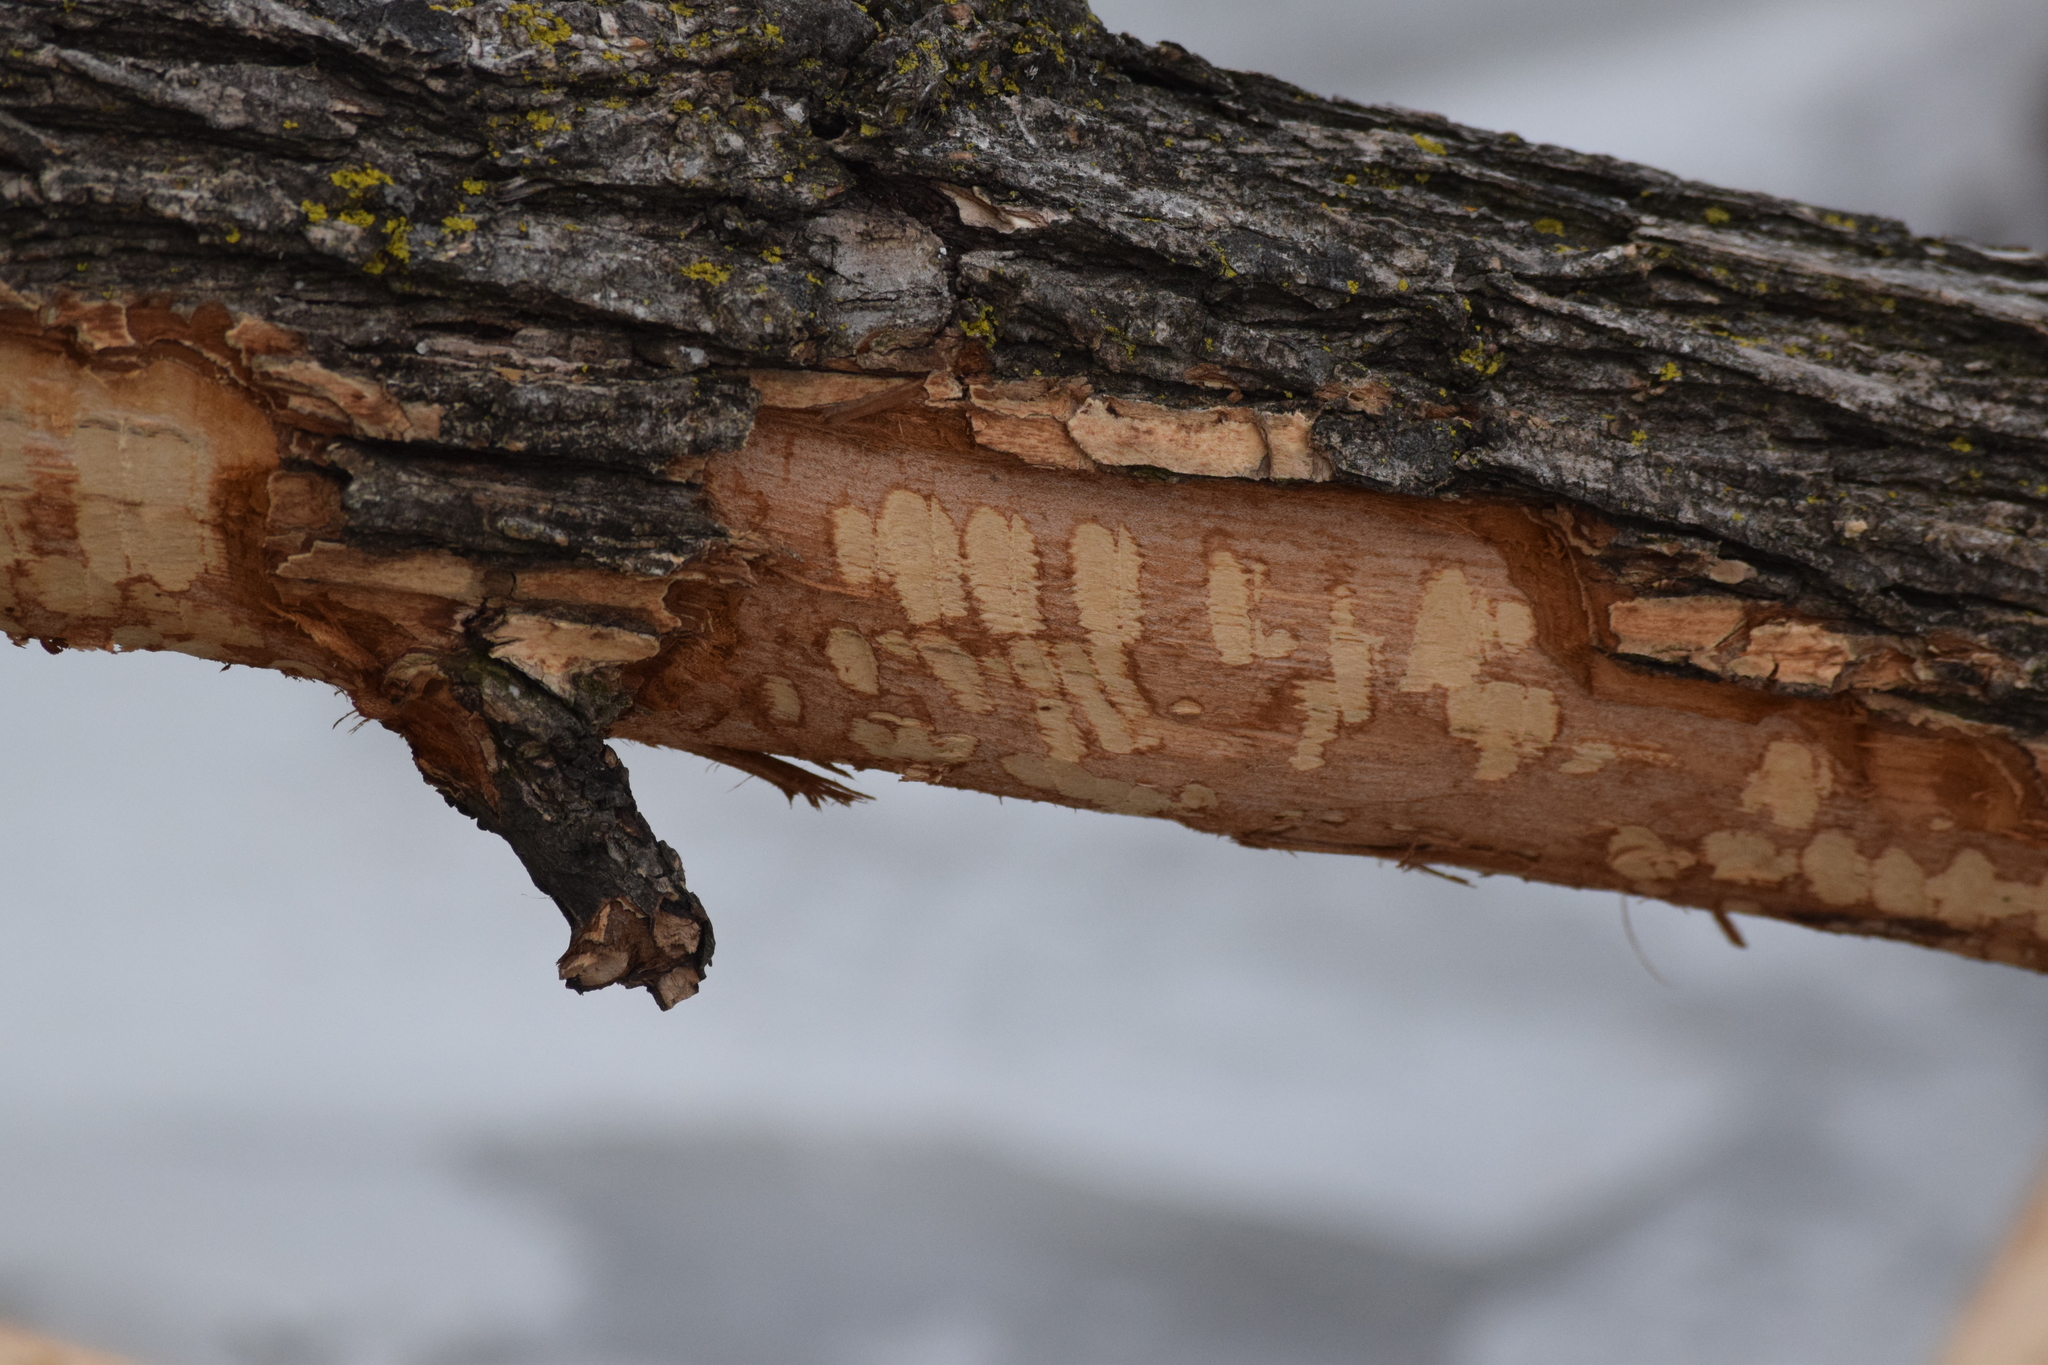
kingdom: Animalia
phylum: Chordata
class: Mammalia
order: Rodentia
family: Castoridae
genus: Castor
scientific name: Castor canadensis
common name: American beaver
